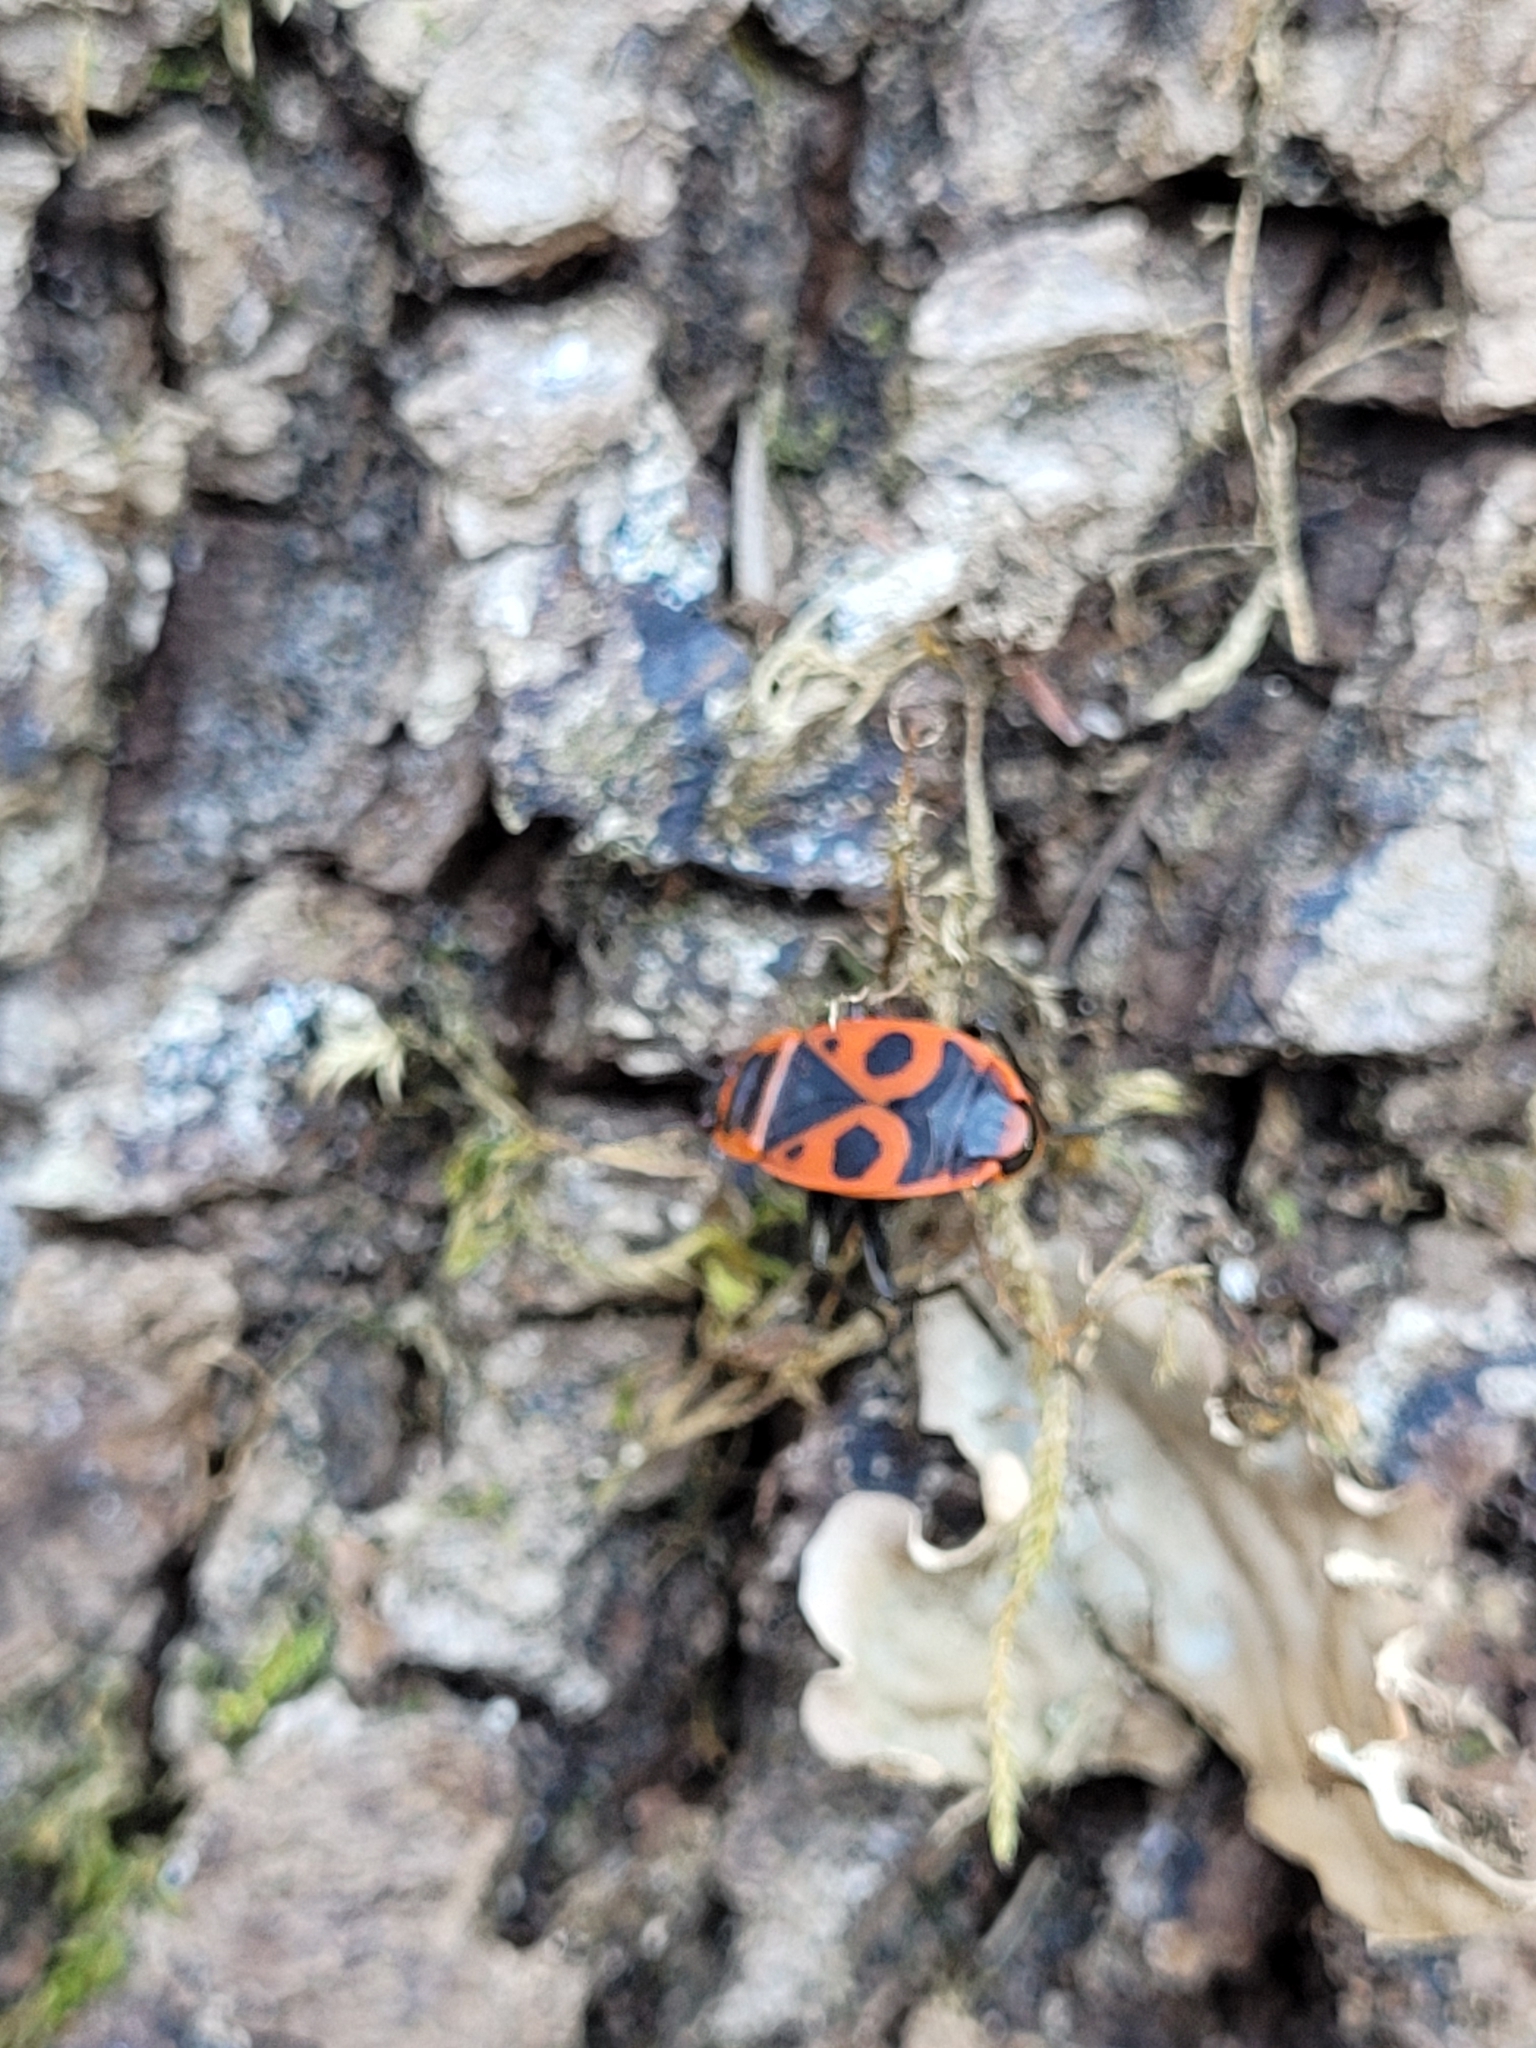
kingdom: Animalia
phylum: Arthropoda
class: Insecta
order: Hemiptera
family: Pyrrhocoridae
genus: Pyrrhocoris
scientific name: Pyrrhocoris apterus
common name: Firebug
